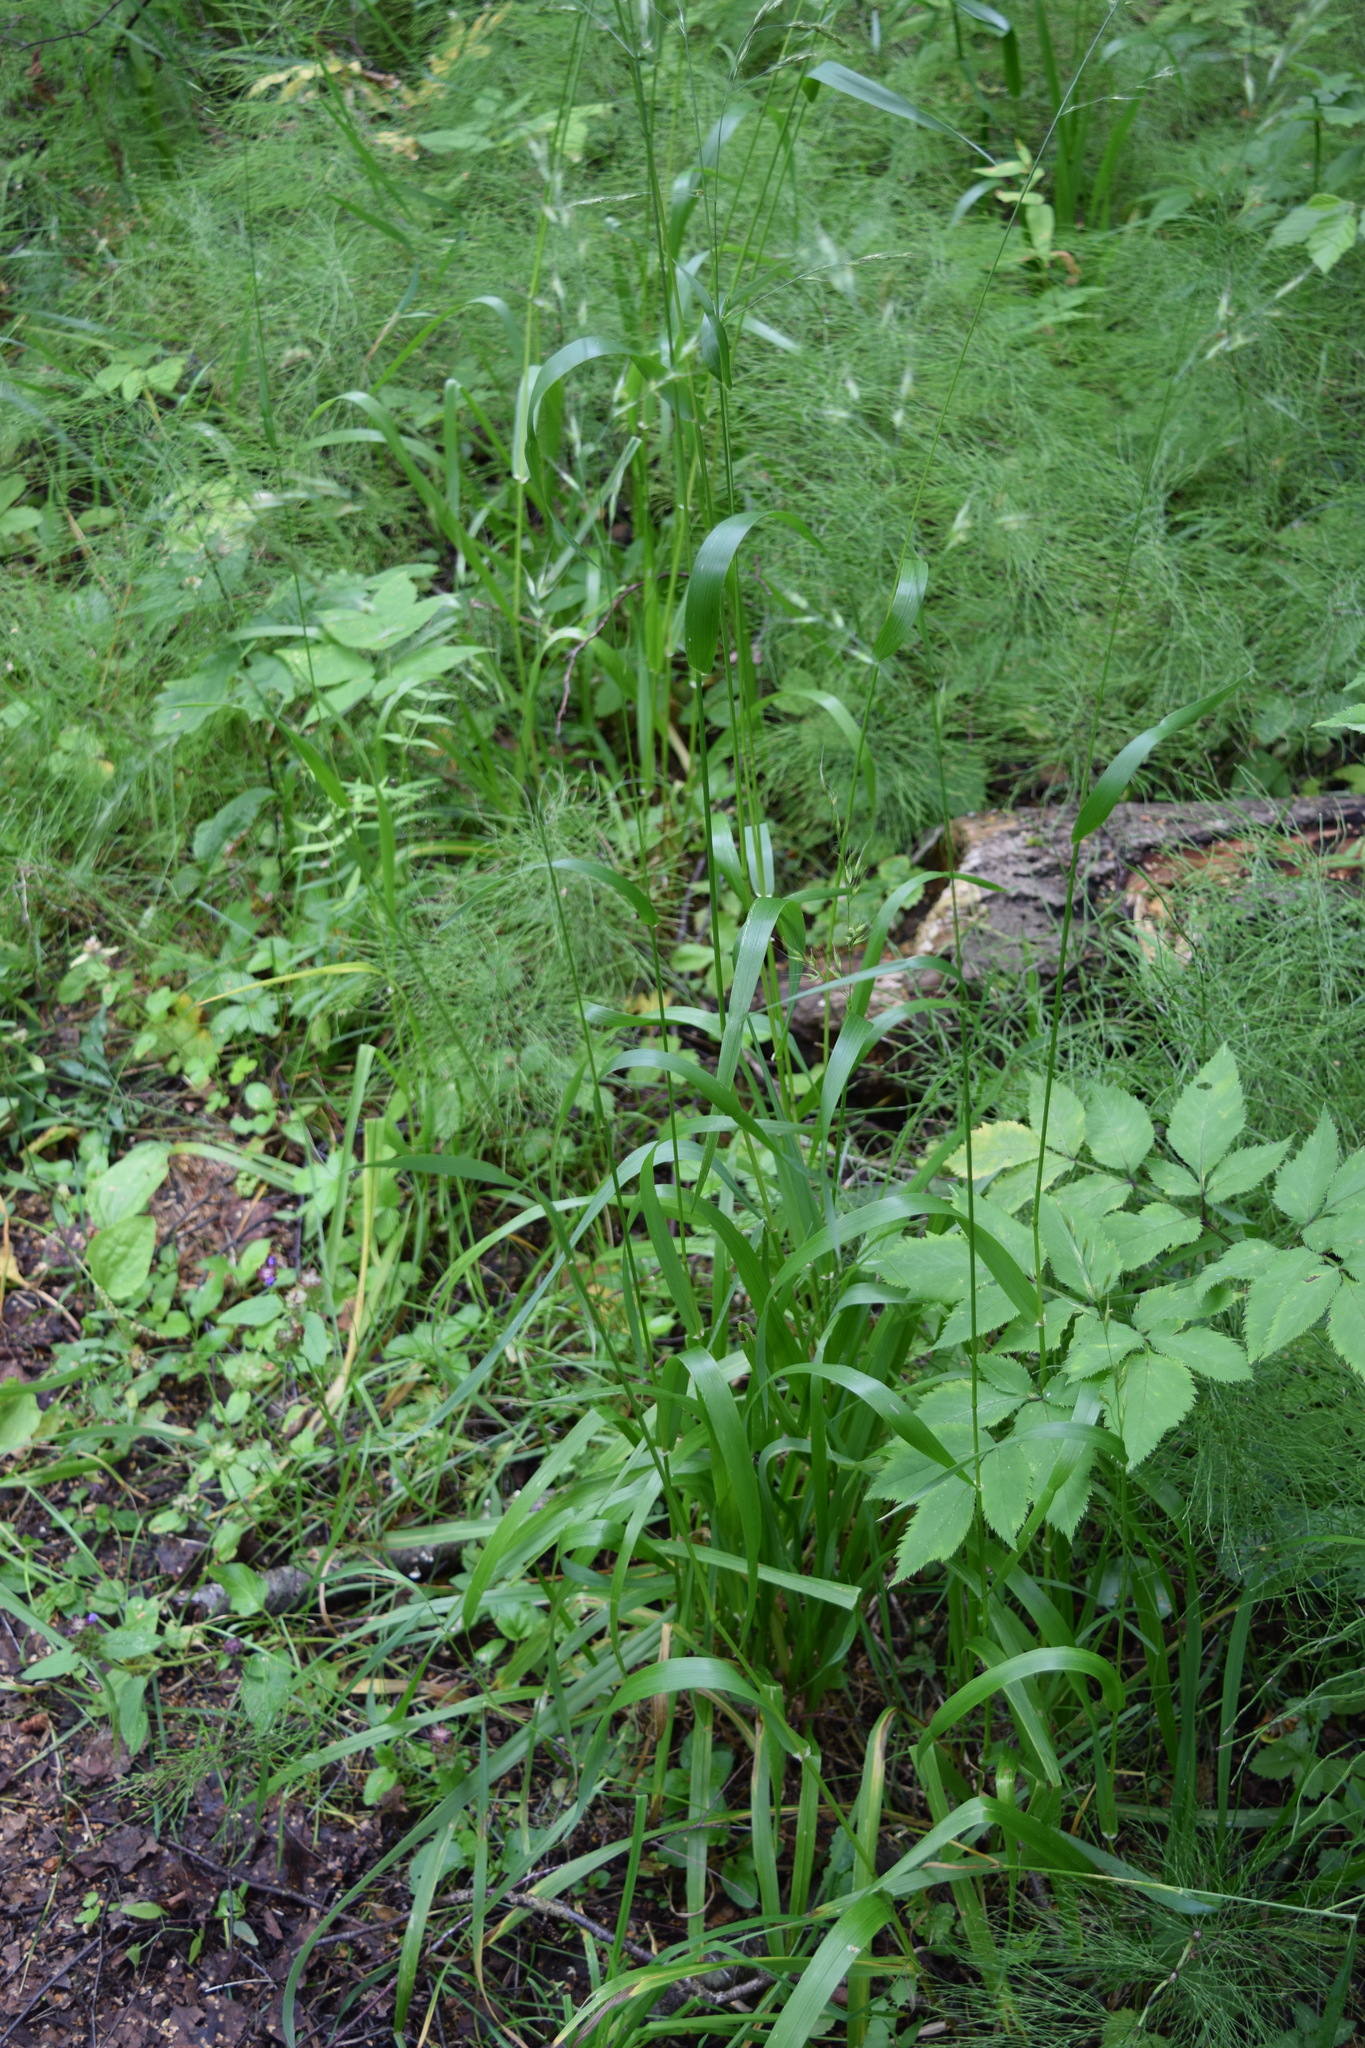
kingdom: Plantae
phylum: Tracheophyta
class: Liliopsida
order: Poales
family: Poaceae
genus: Lolium
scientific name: Lolium giganteum
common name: Giant fescue
